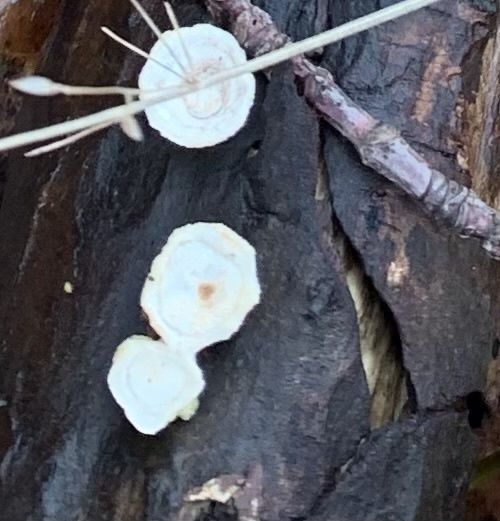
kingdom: Fungi
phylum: Basidiomycota
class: Agaricomycetes
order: Polyporales
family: Polyporaceae
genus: Poronidulus
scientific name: Poronidulus conchifer
